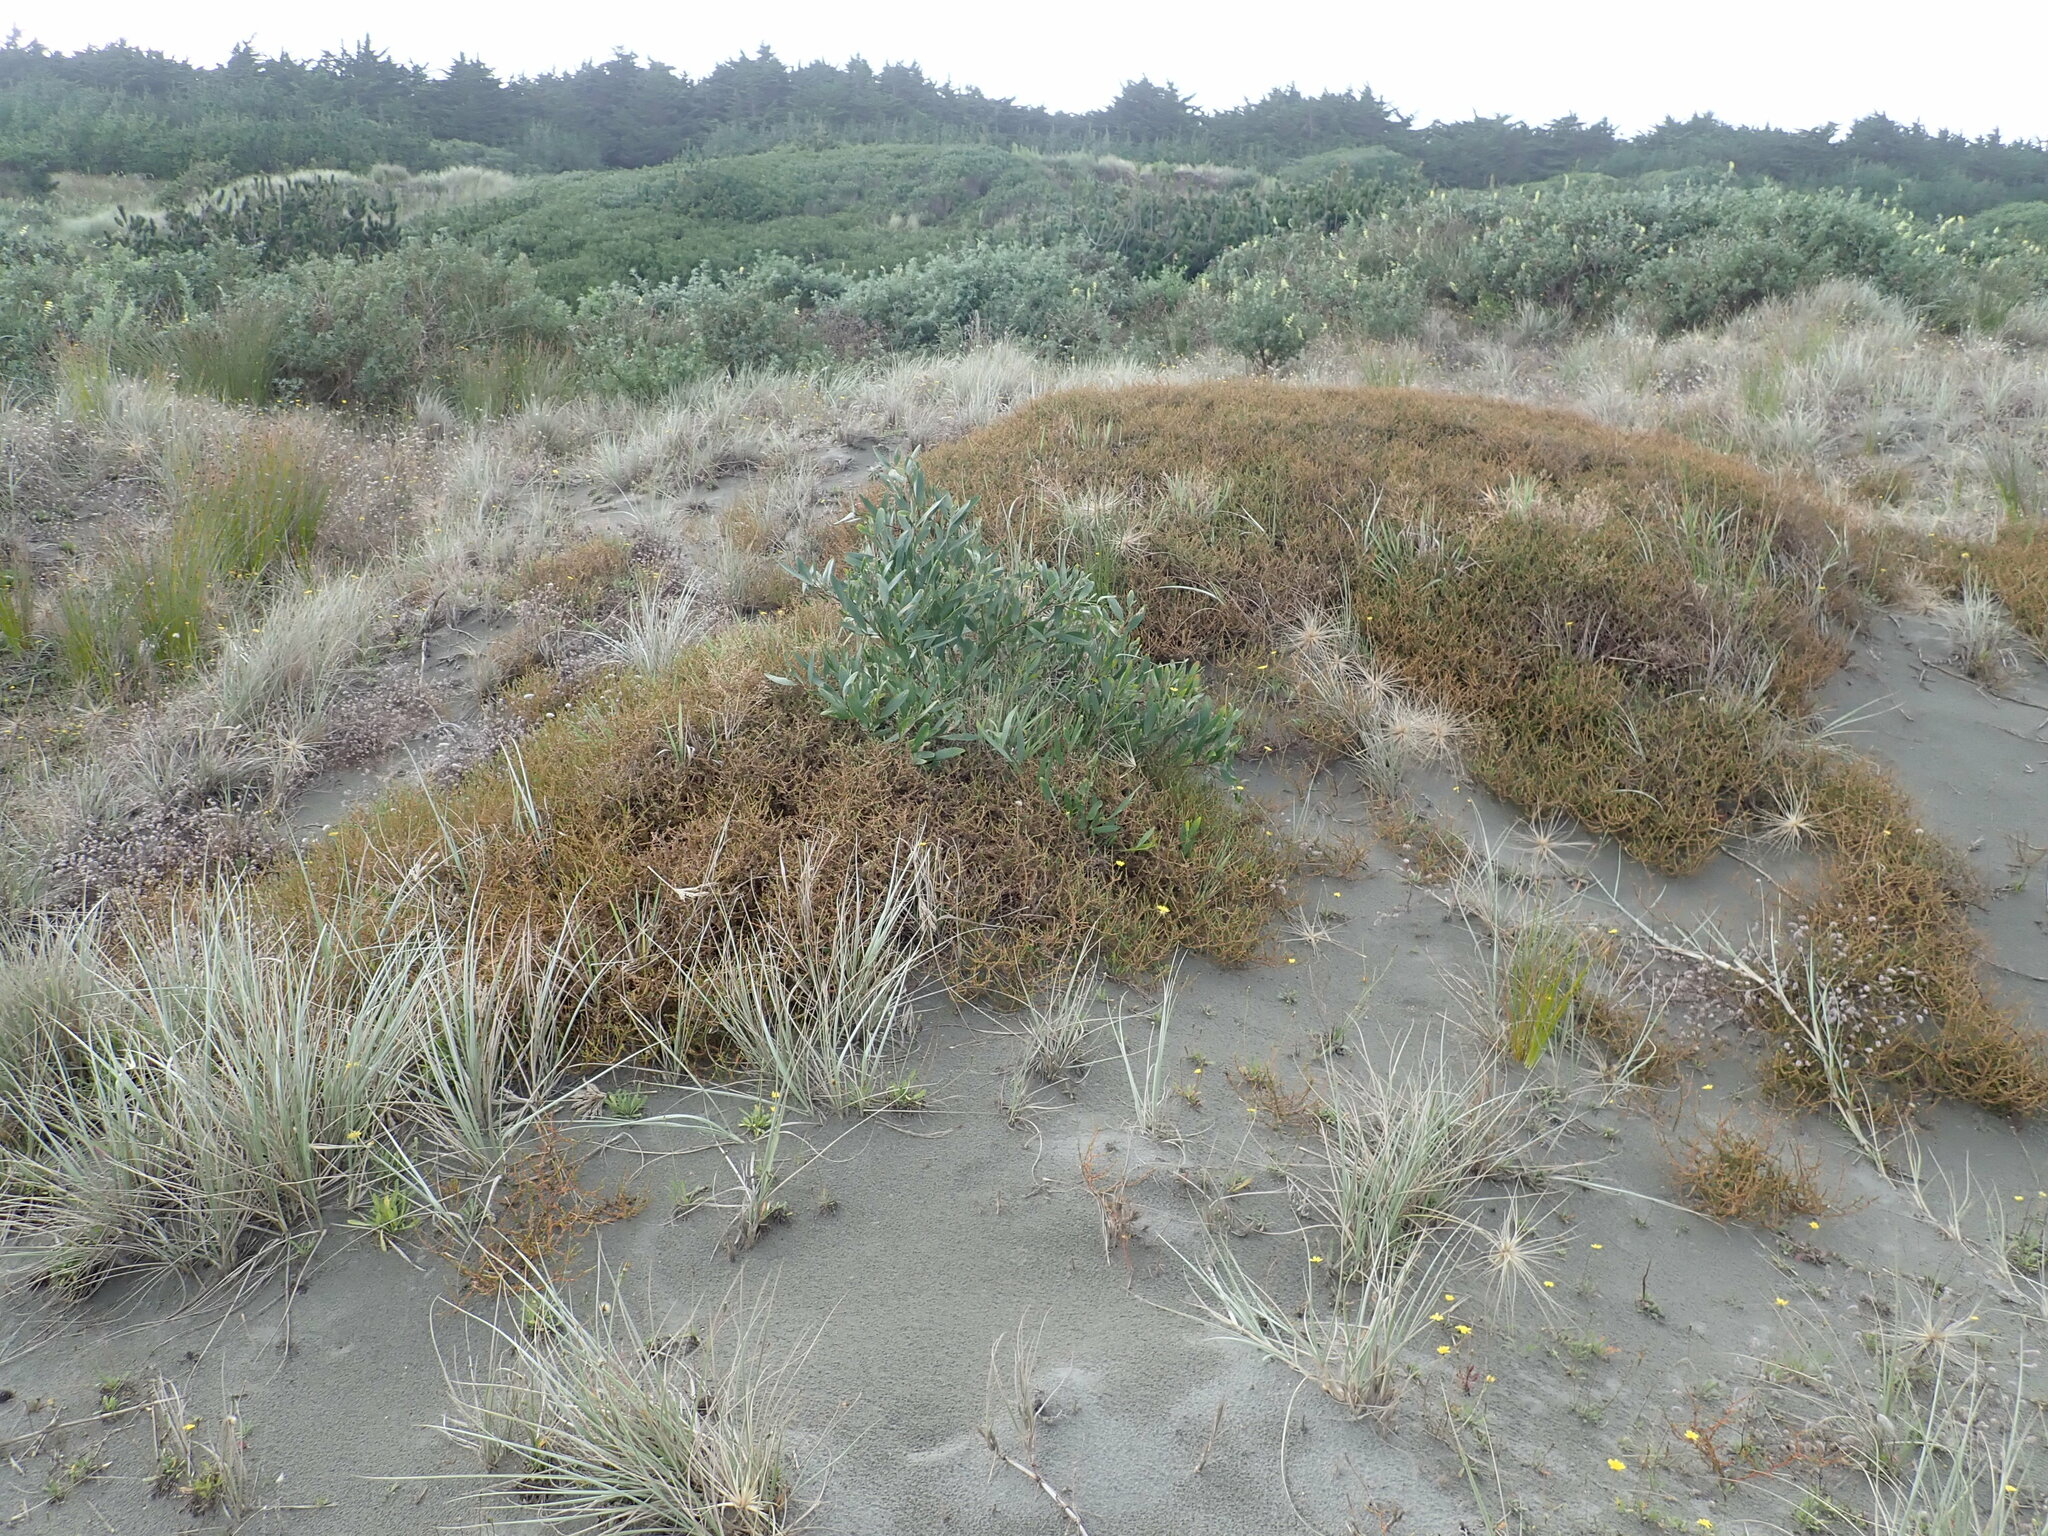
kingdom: Plantae
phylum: Tracheophyta
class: Magnoliopsida
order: Gentianales
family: Rubiaceae
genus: Coprosma
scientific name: Coprosma acerosa
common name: Sand coprosma
